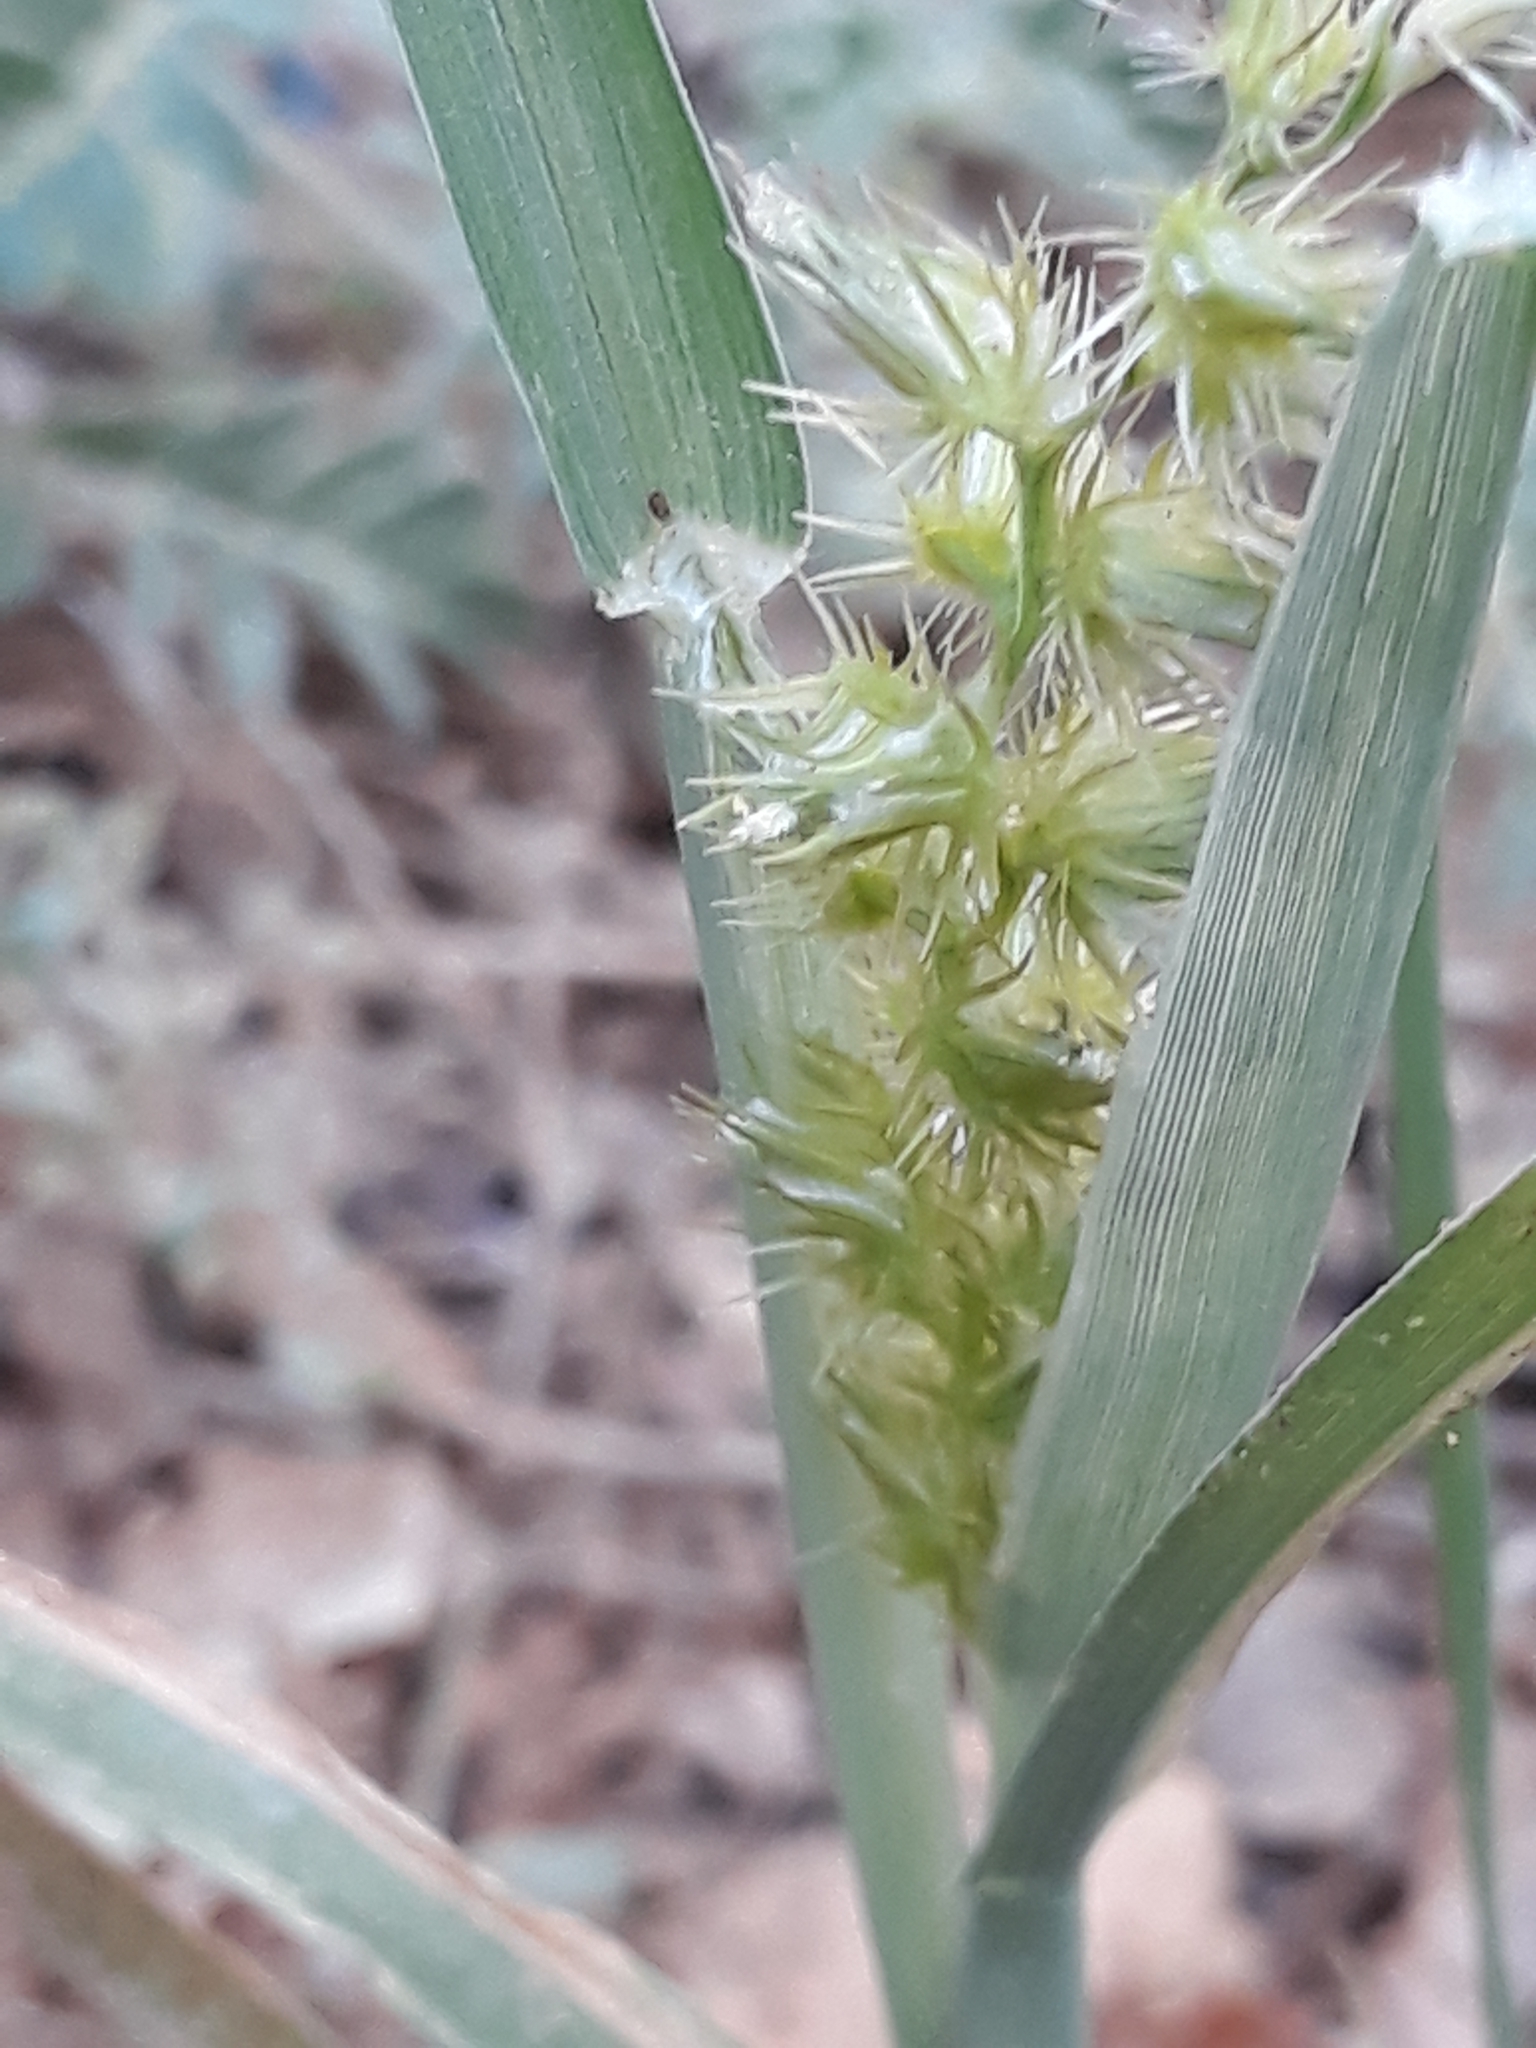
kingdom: Plantae
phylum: Tracheophyta
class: Liliopsida
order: Poales
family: Poaceae
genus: Cenchrus
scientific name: Cenchrus biflorus
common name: Indian sandbur
